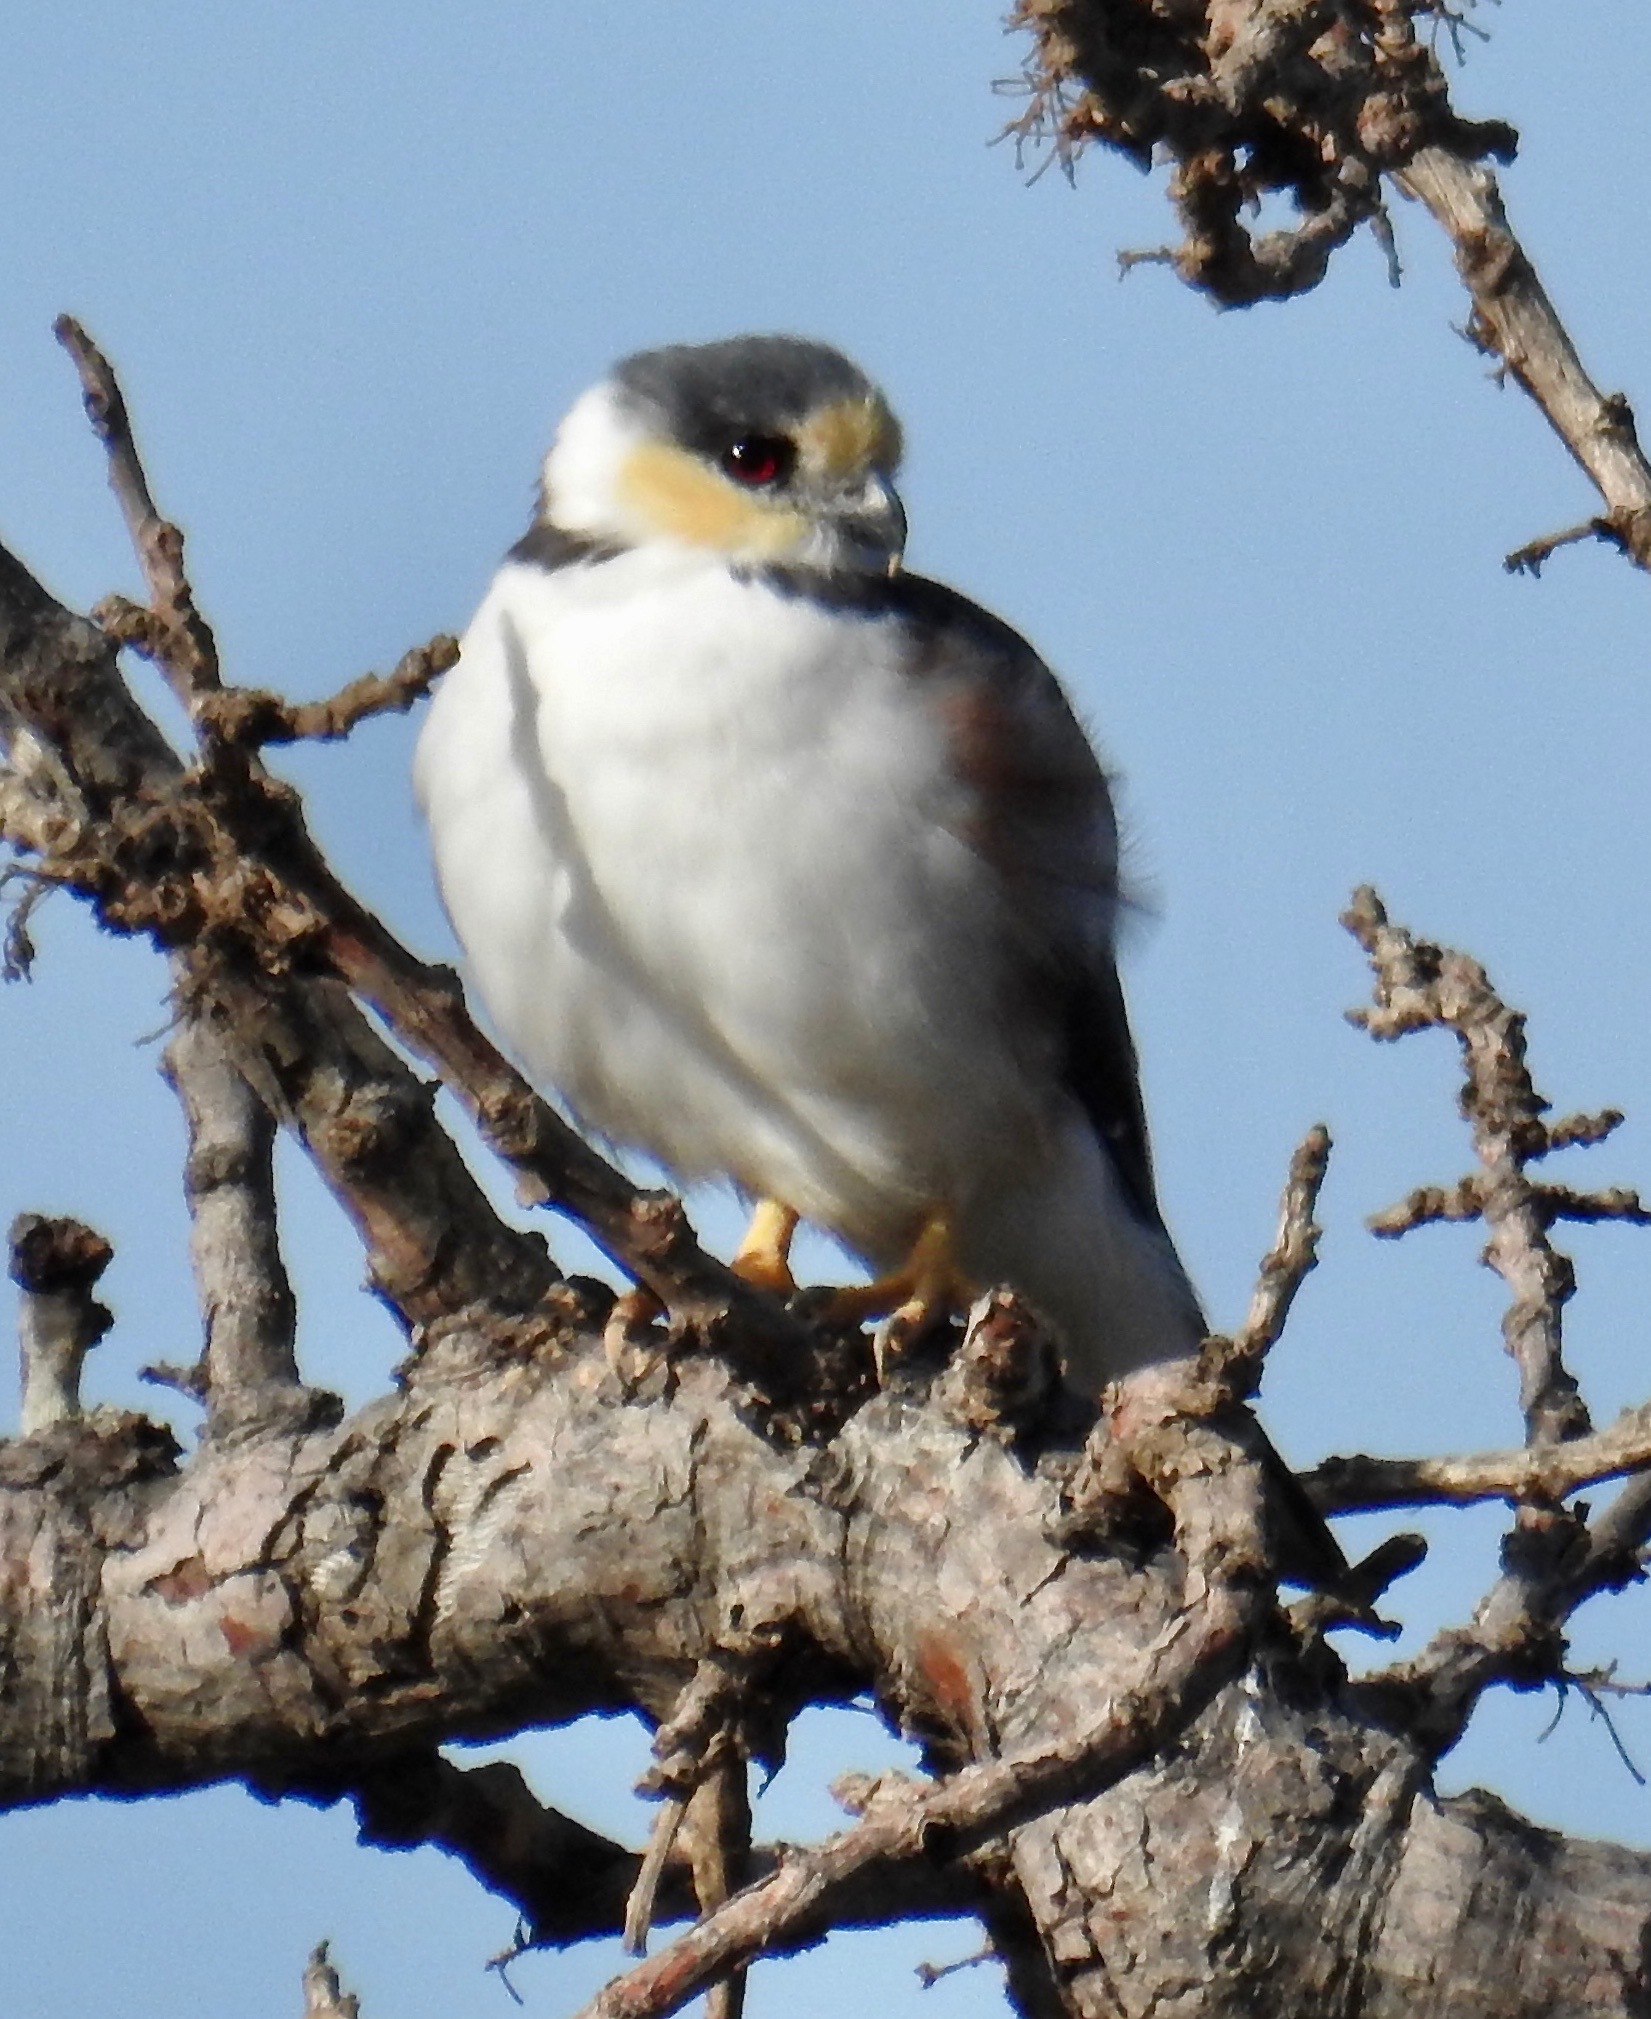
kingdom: Animalia
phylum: Chordata
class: Aves
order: Accipitriformes
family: Accipitridae
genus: Gampsonyx
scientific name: Gampsonyx swainsonii
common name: Pearl kite
